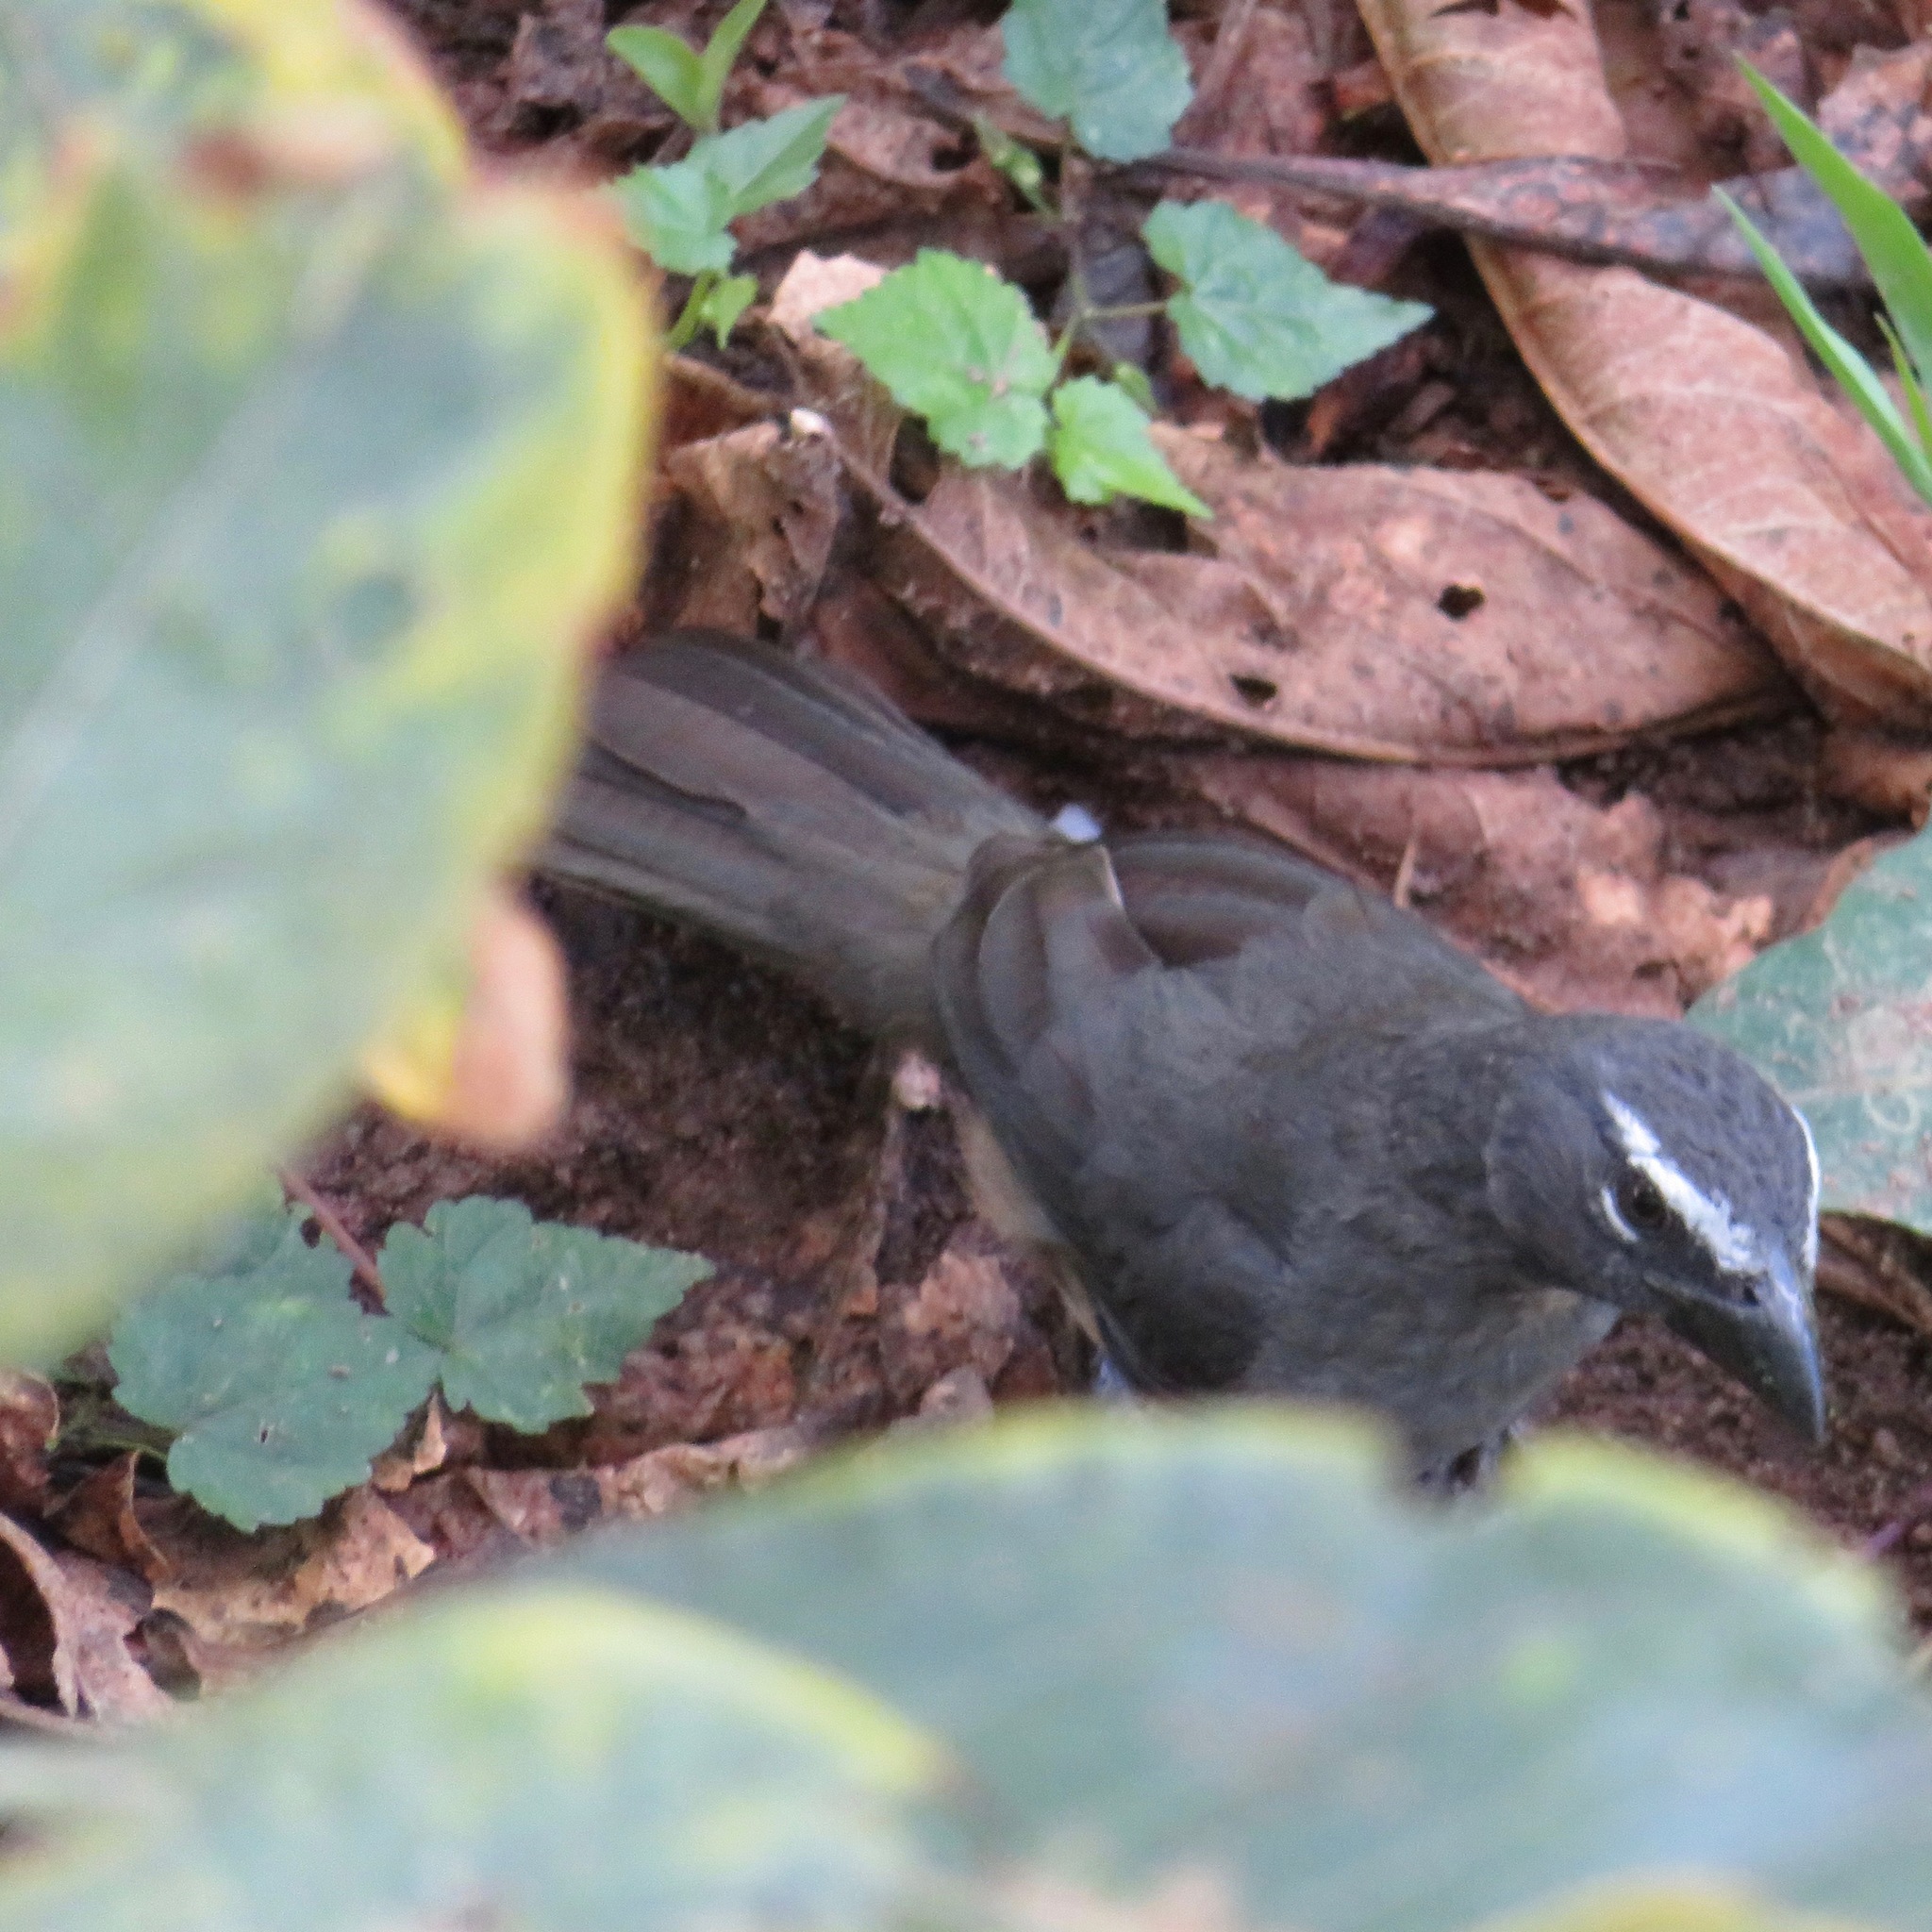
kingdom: Animalia
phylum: Chordata
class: Aves
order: Passeriformes
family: Thraupidae
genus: Saltator
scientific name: Saltator grandis
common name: Cinnamon-bellied saltator
